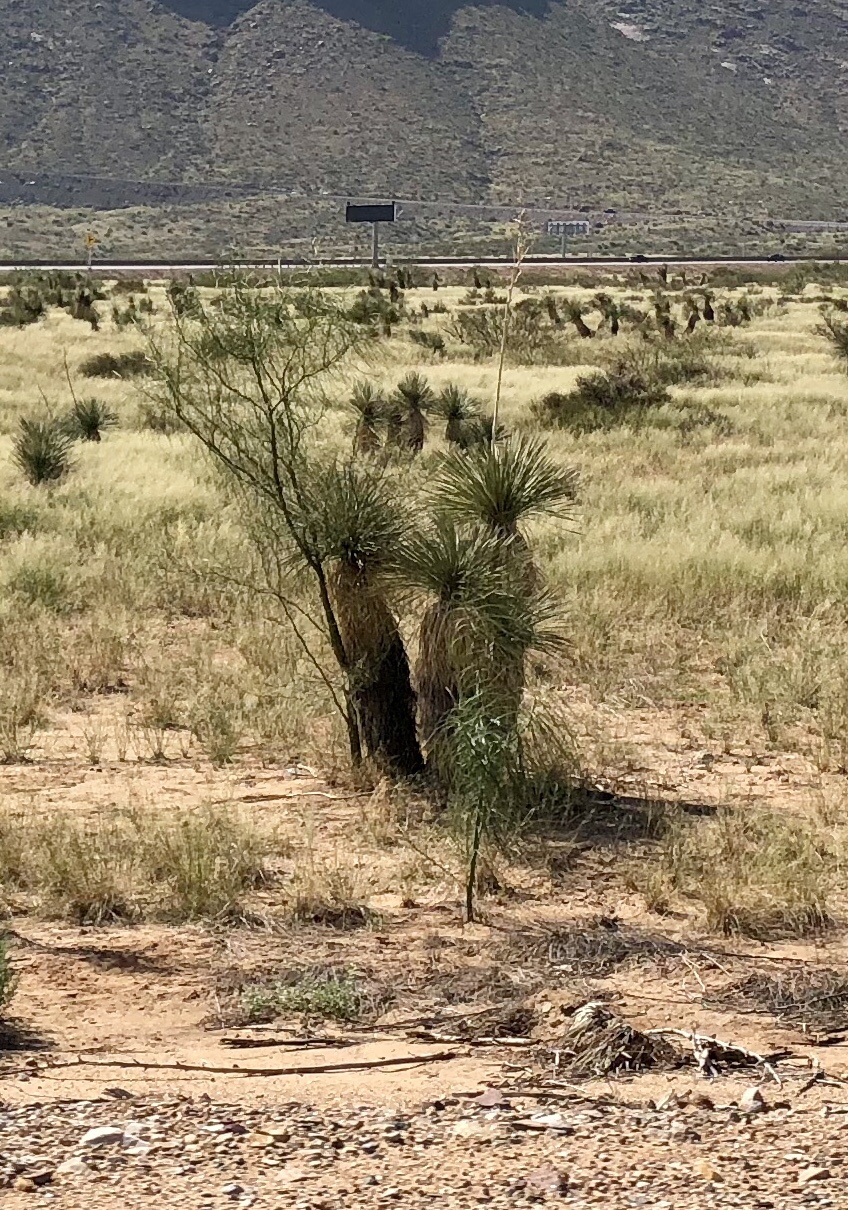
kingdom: Plantae
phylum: Tracheophyta
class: Liliopsida
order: Asparagales
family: Asparagaceae
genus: Yucca
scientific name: Yucca elata
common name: Palmella
